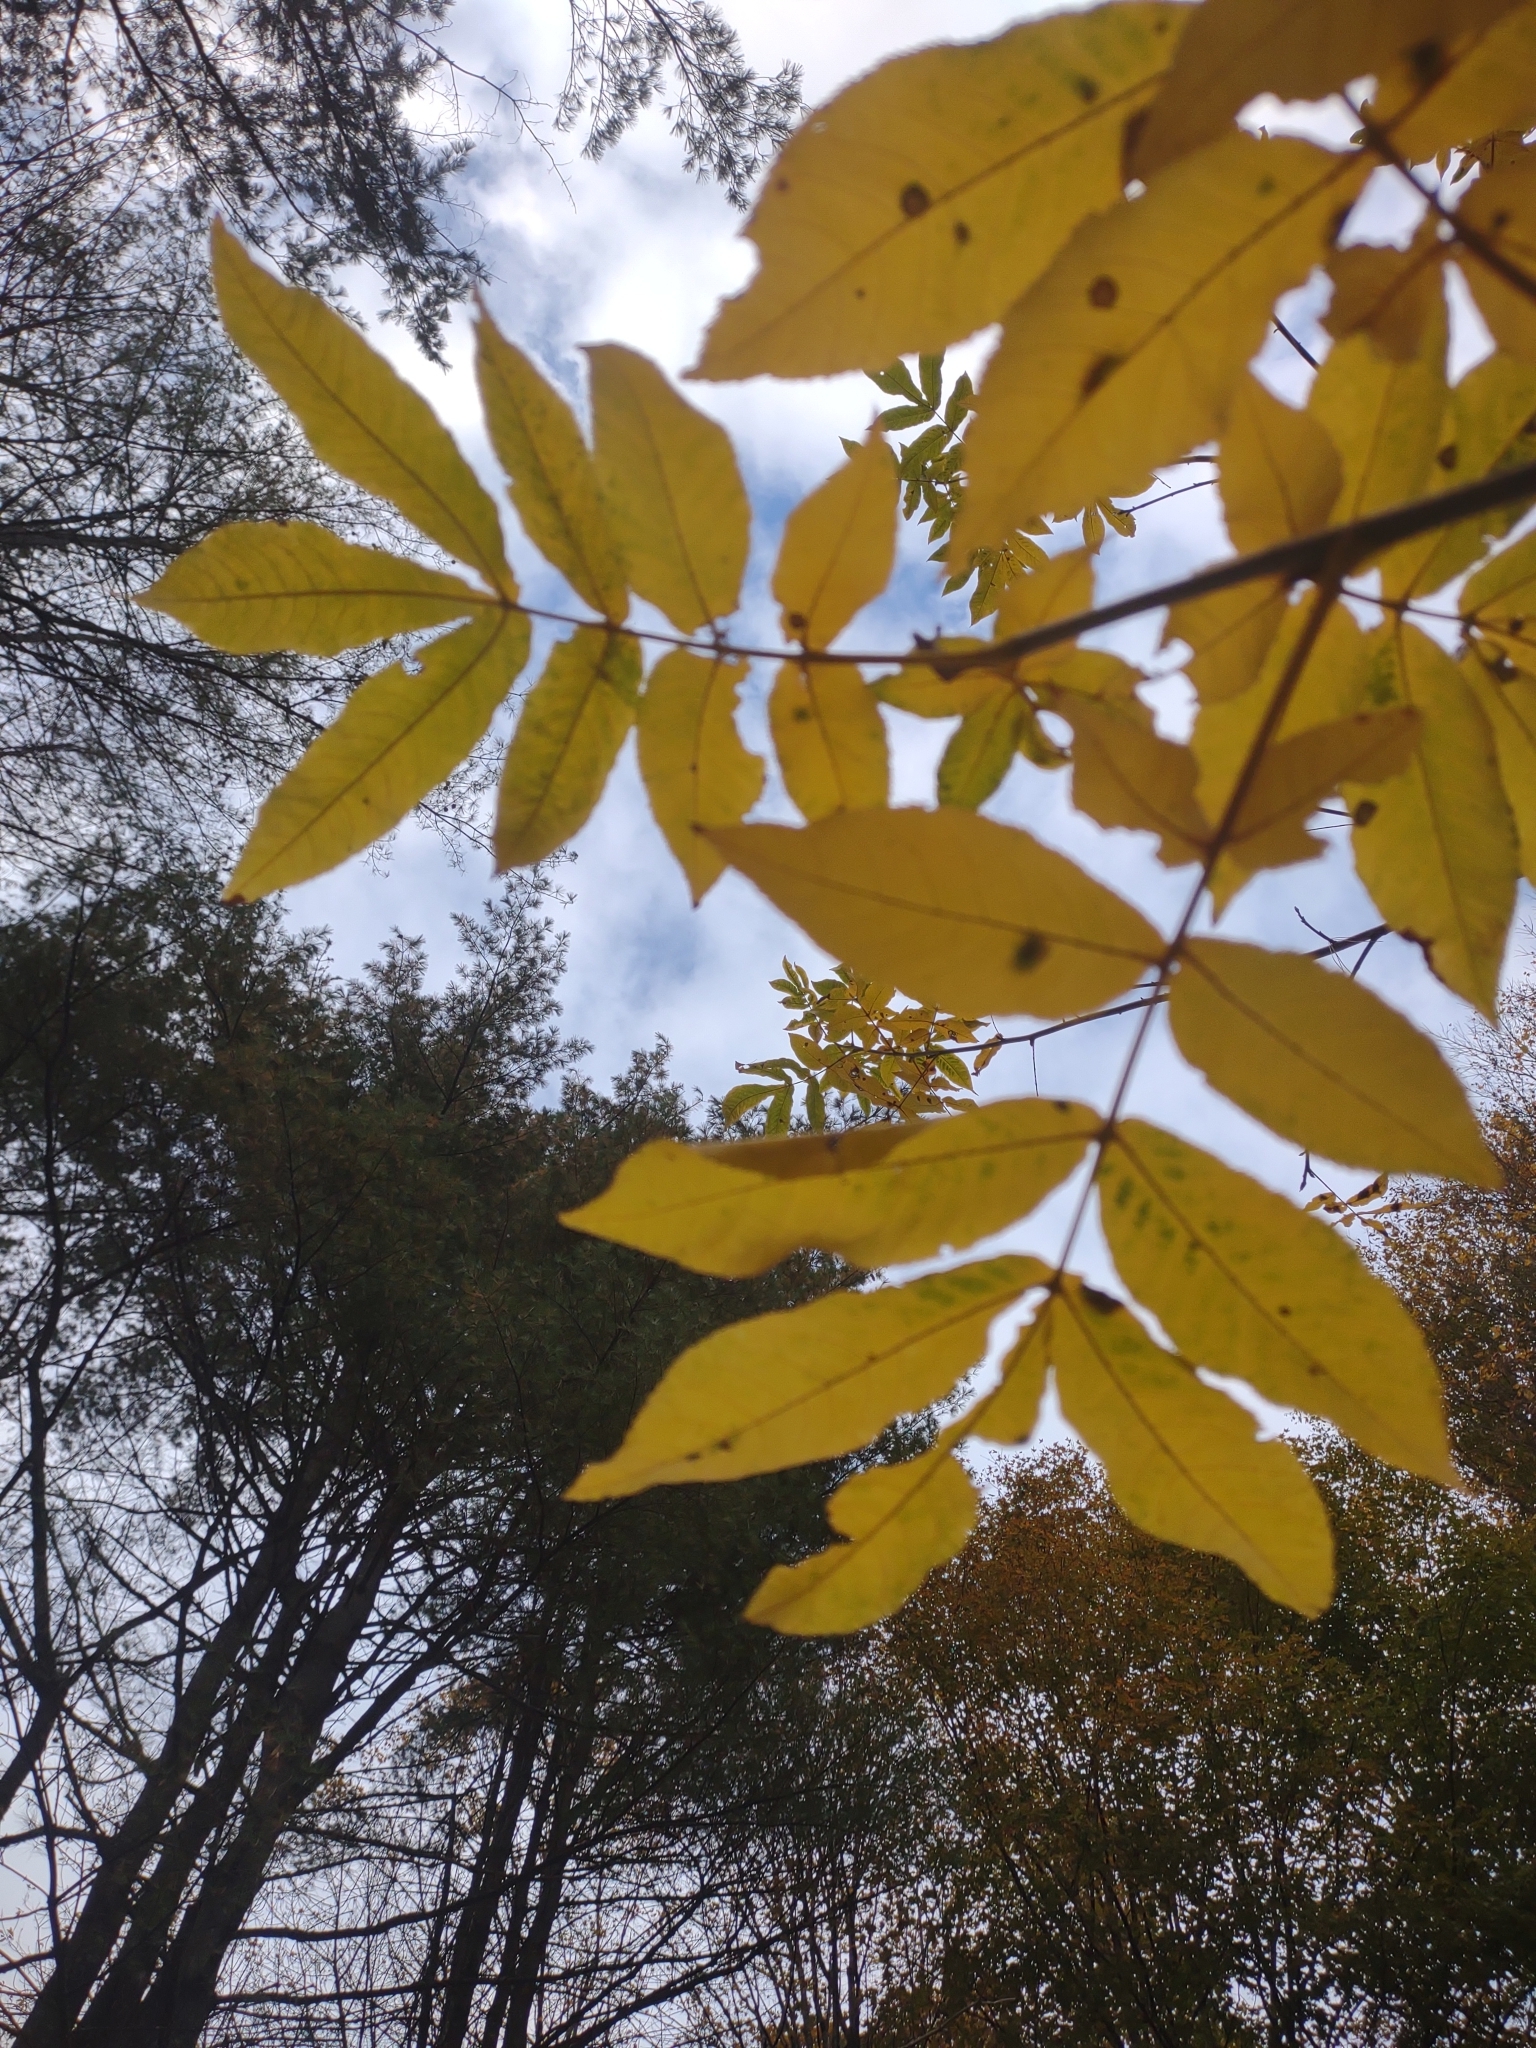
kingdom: Plantae
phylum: Tracheophyta
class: Magnoliopsida
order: Fagales
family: Juglandaceae
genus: Carya
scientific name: Carya cordiformis
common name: Bitternut hickory
